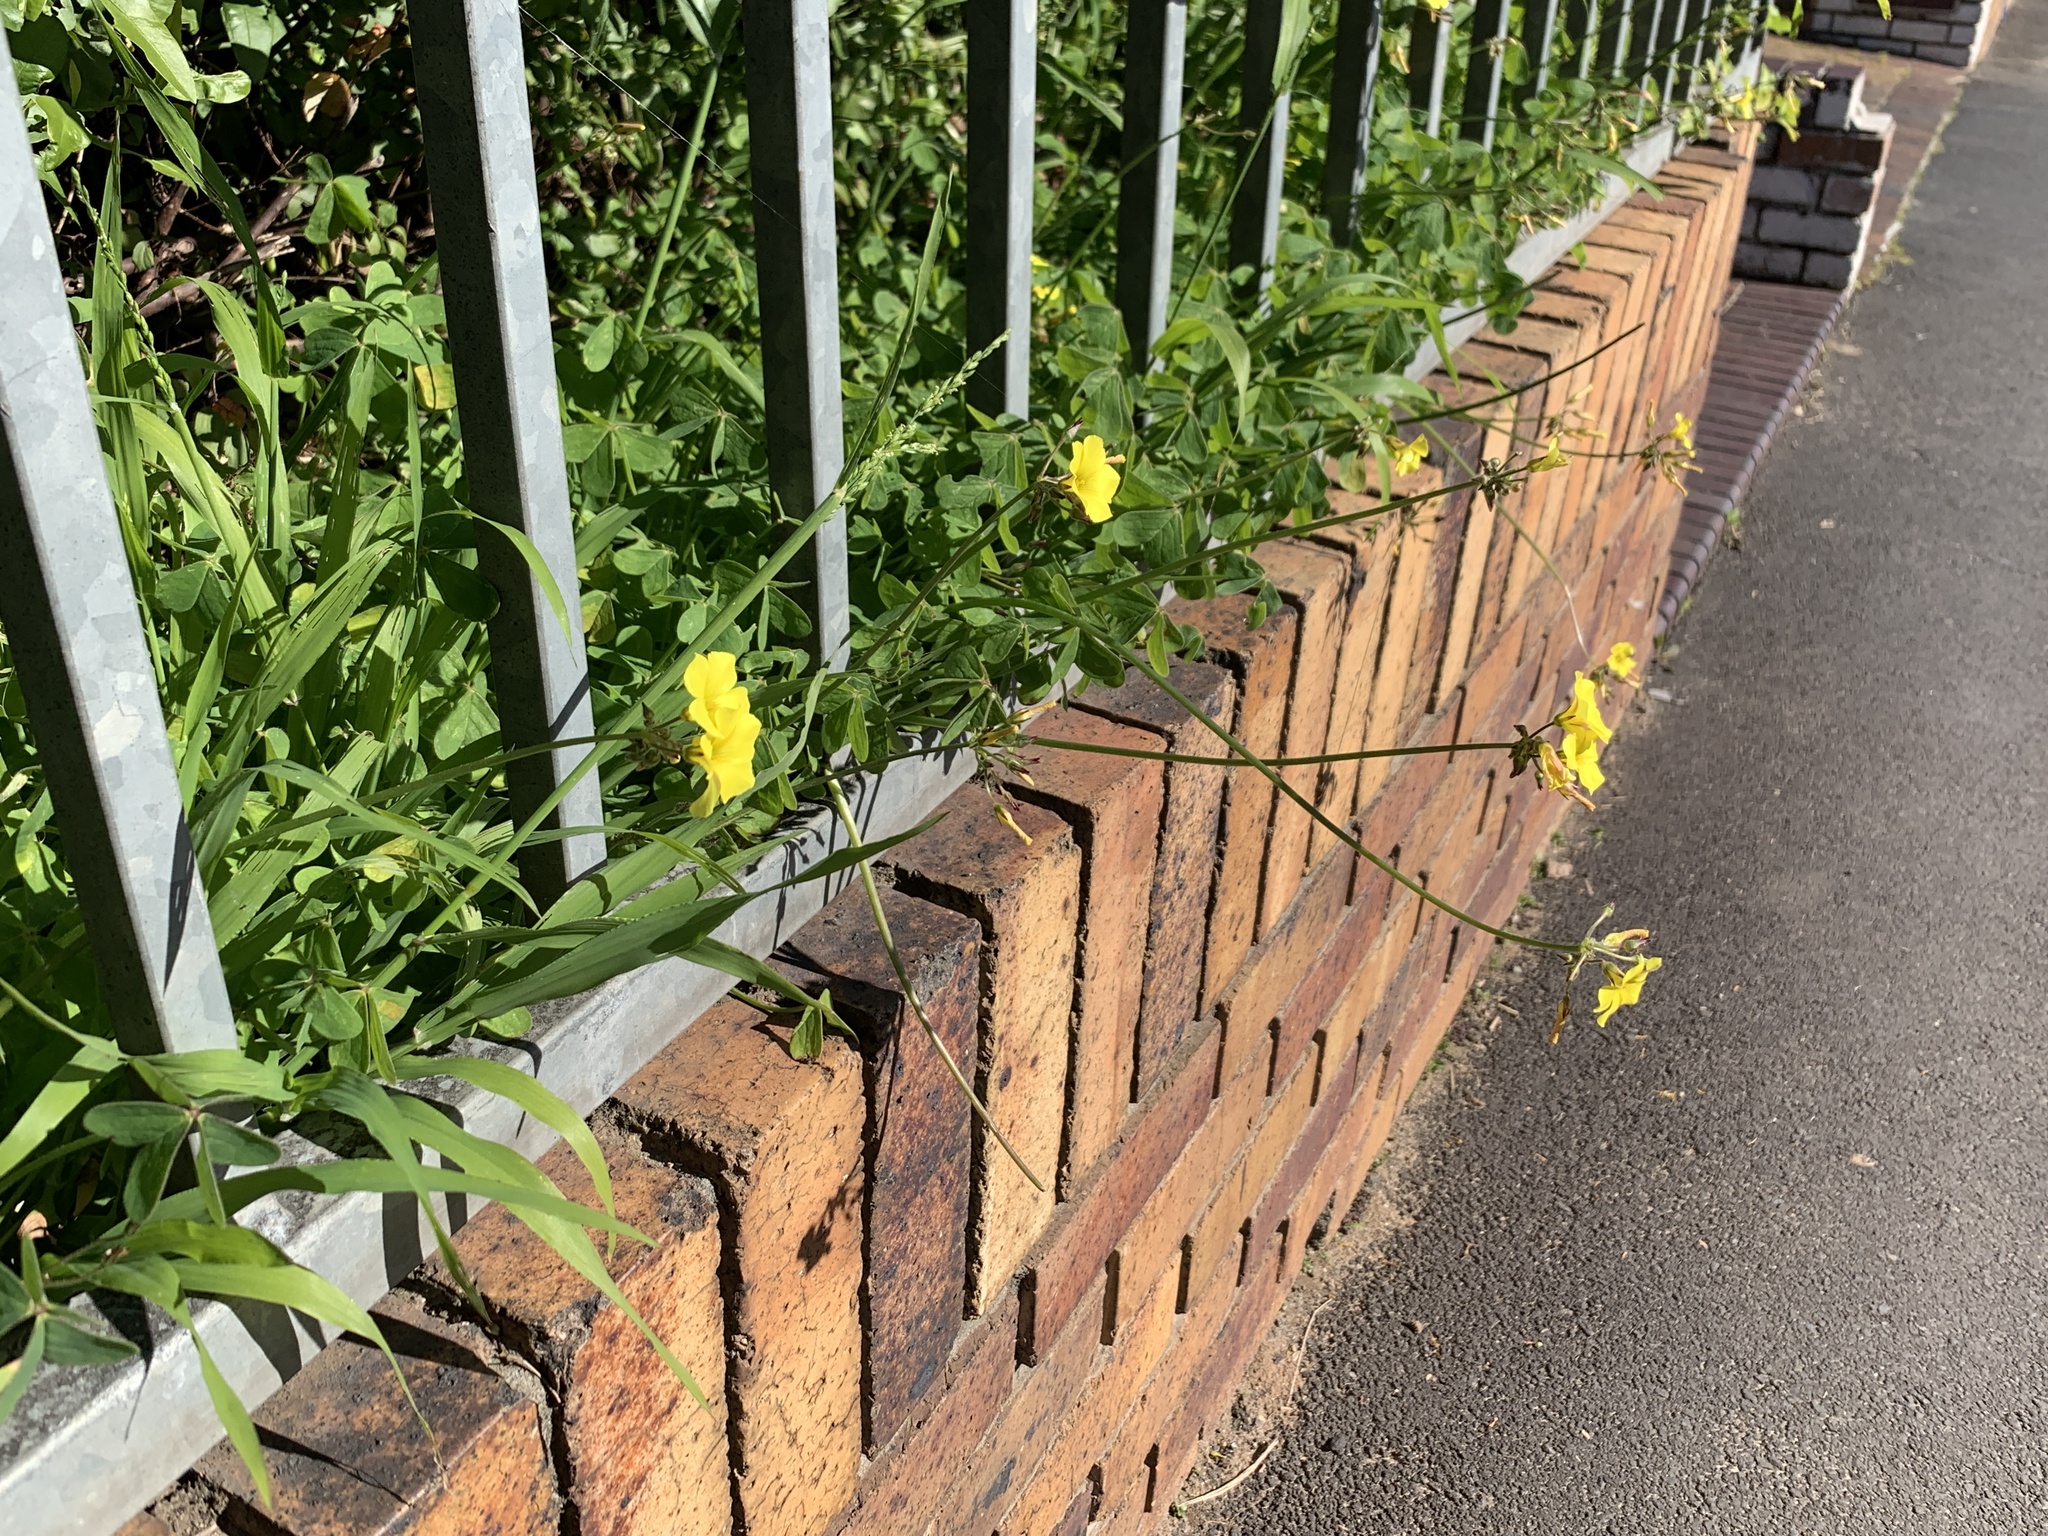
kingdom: Plantae
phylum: Tracheophyta
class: Magnoliopsida
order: Oxalidales
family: Oxalidaceae
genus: Oxalis
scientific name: Oxalis pes-caprae
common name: Bermuda-buttercup
